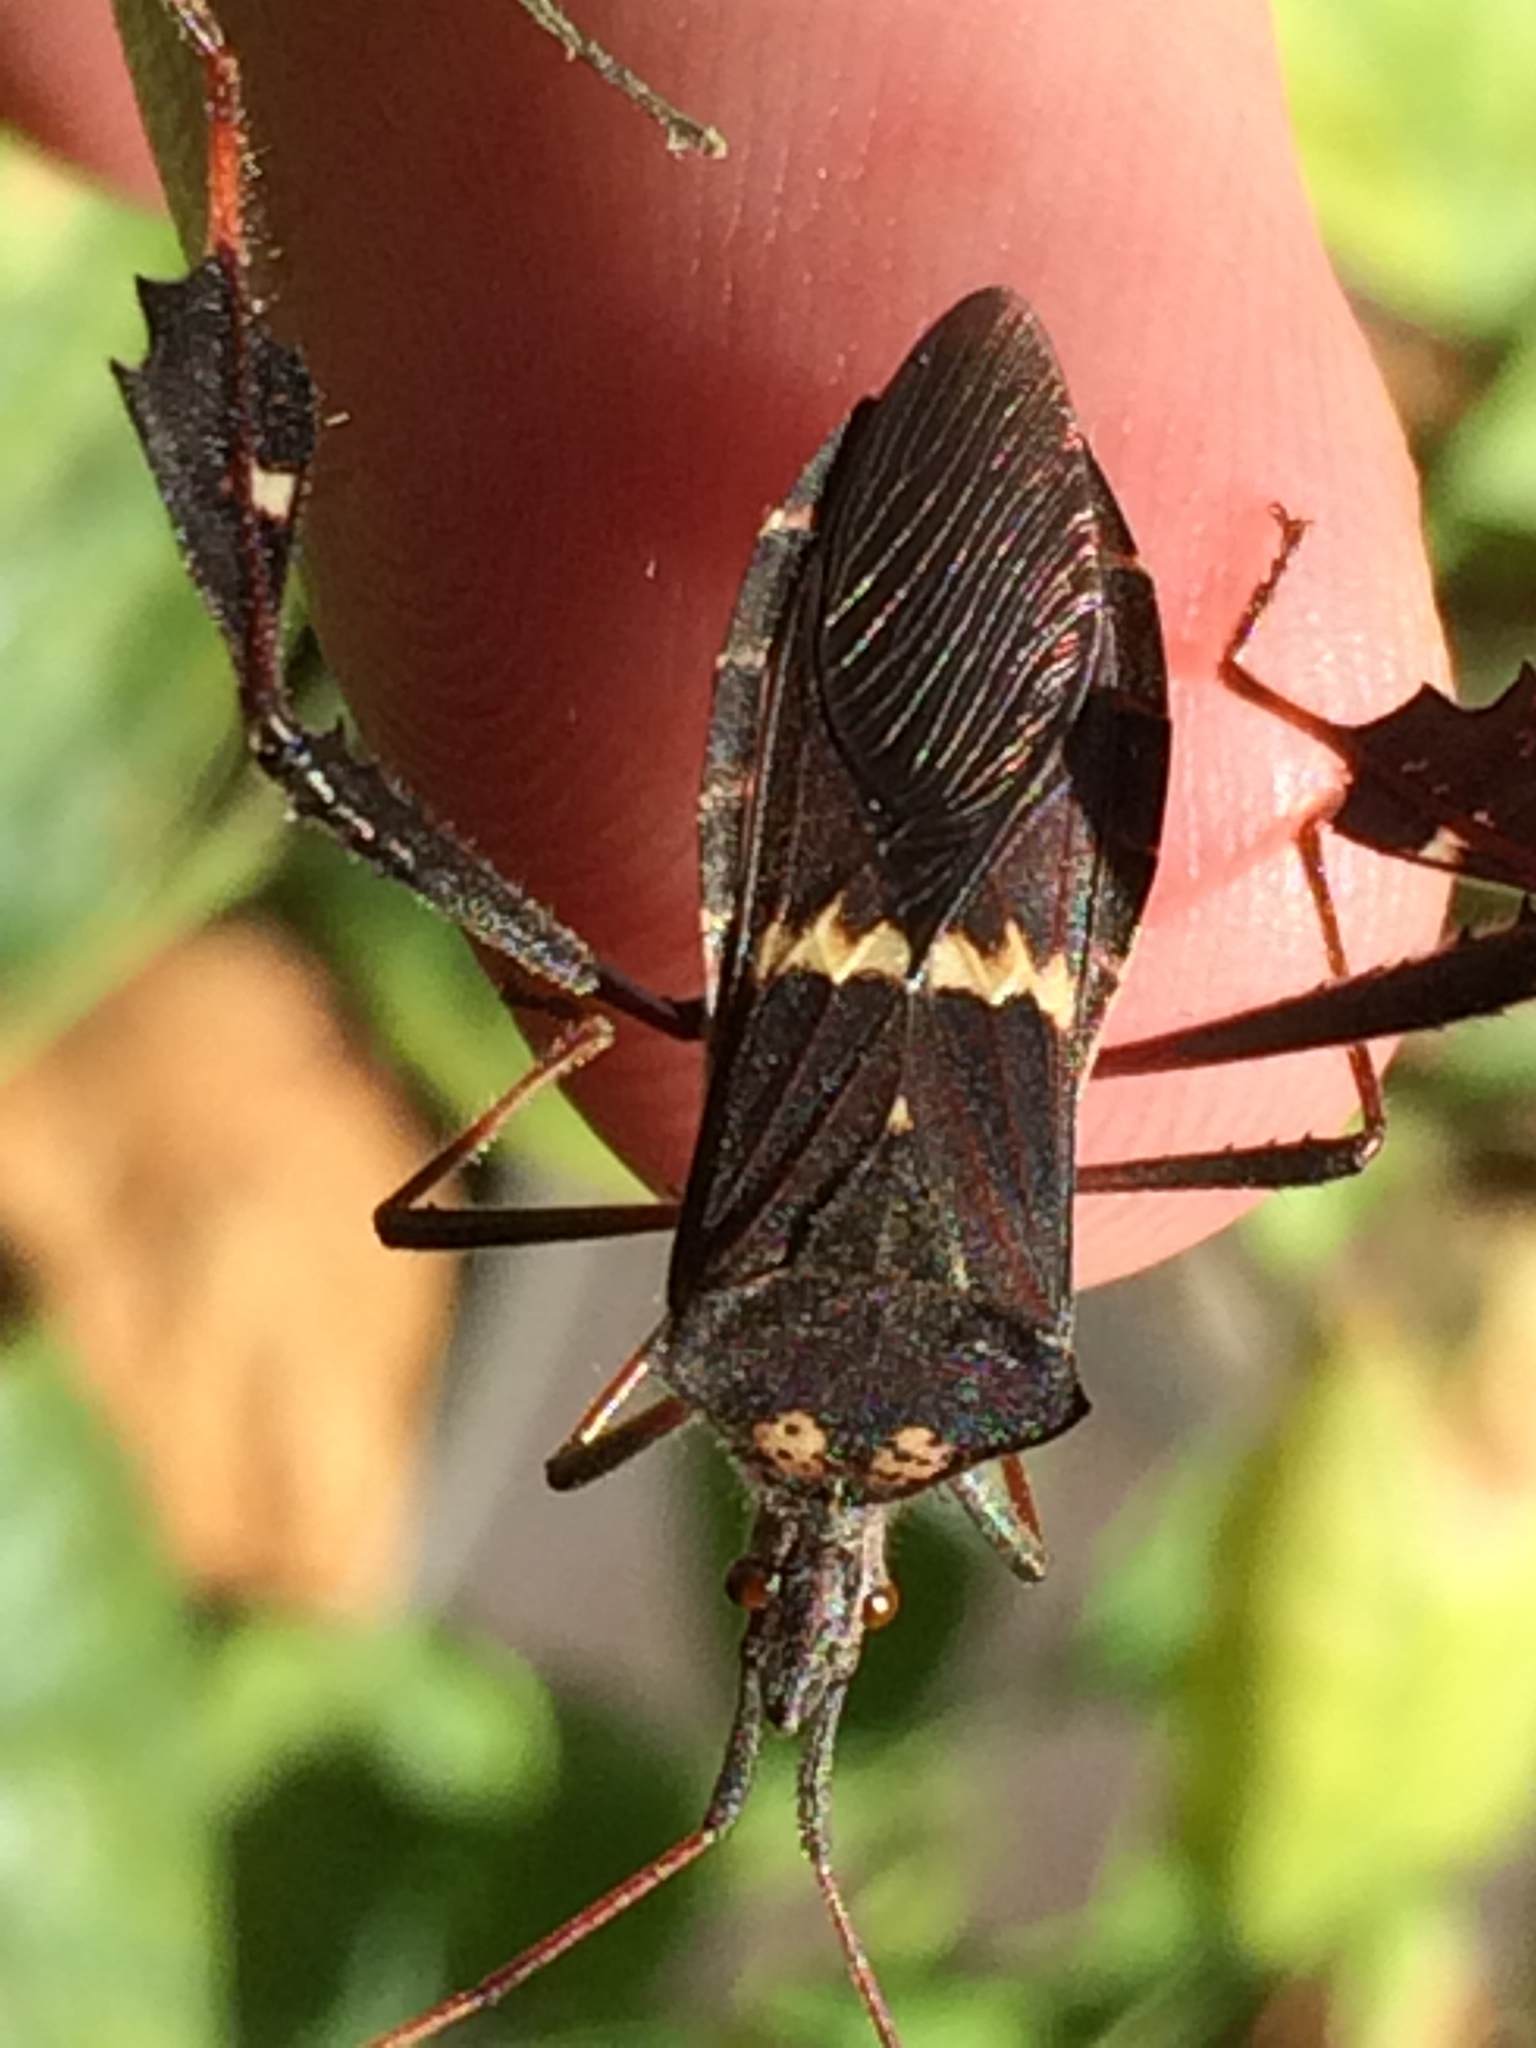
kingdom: Animalia
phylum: Arthropoda
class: Insecta
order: Hemiptera
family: Coreidae
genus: Leptoglossus
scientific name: Leptoglossus zonatus
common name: Large-legged bug
